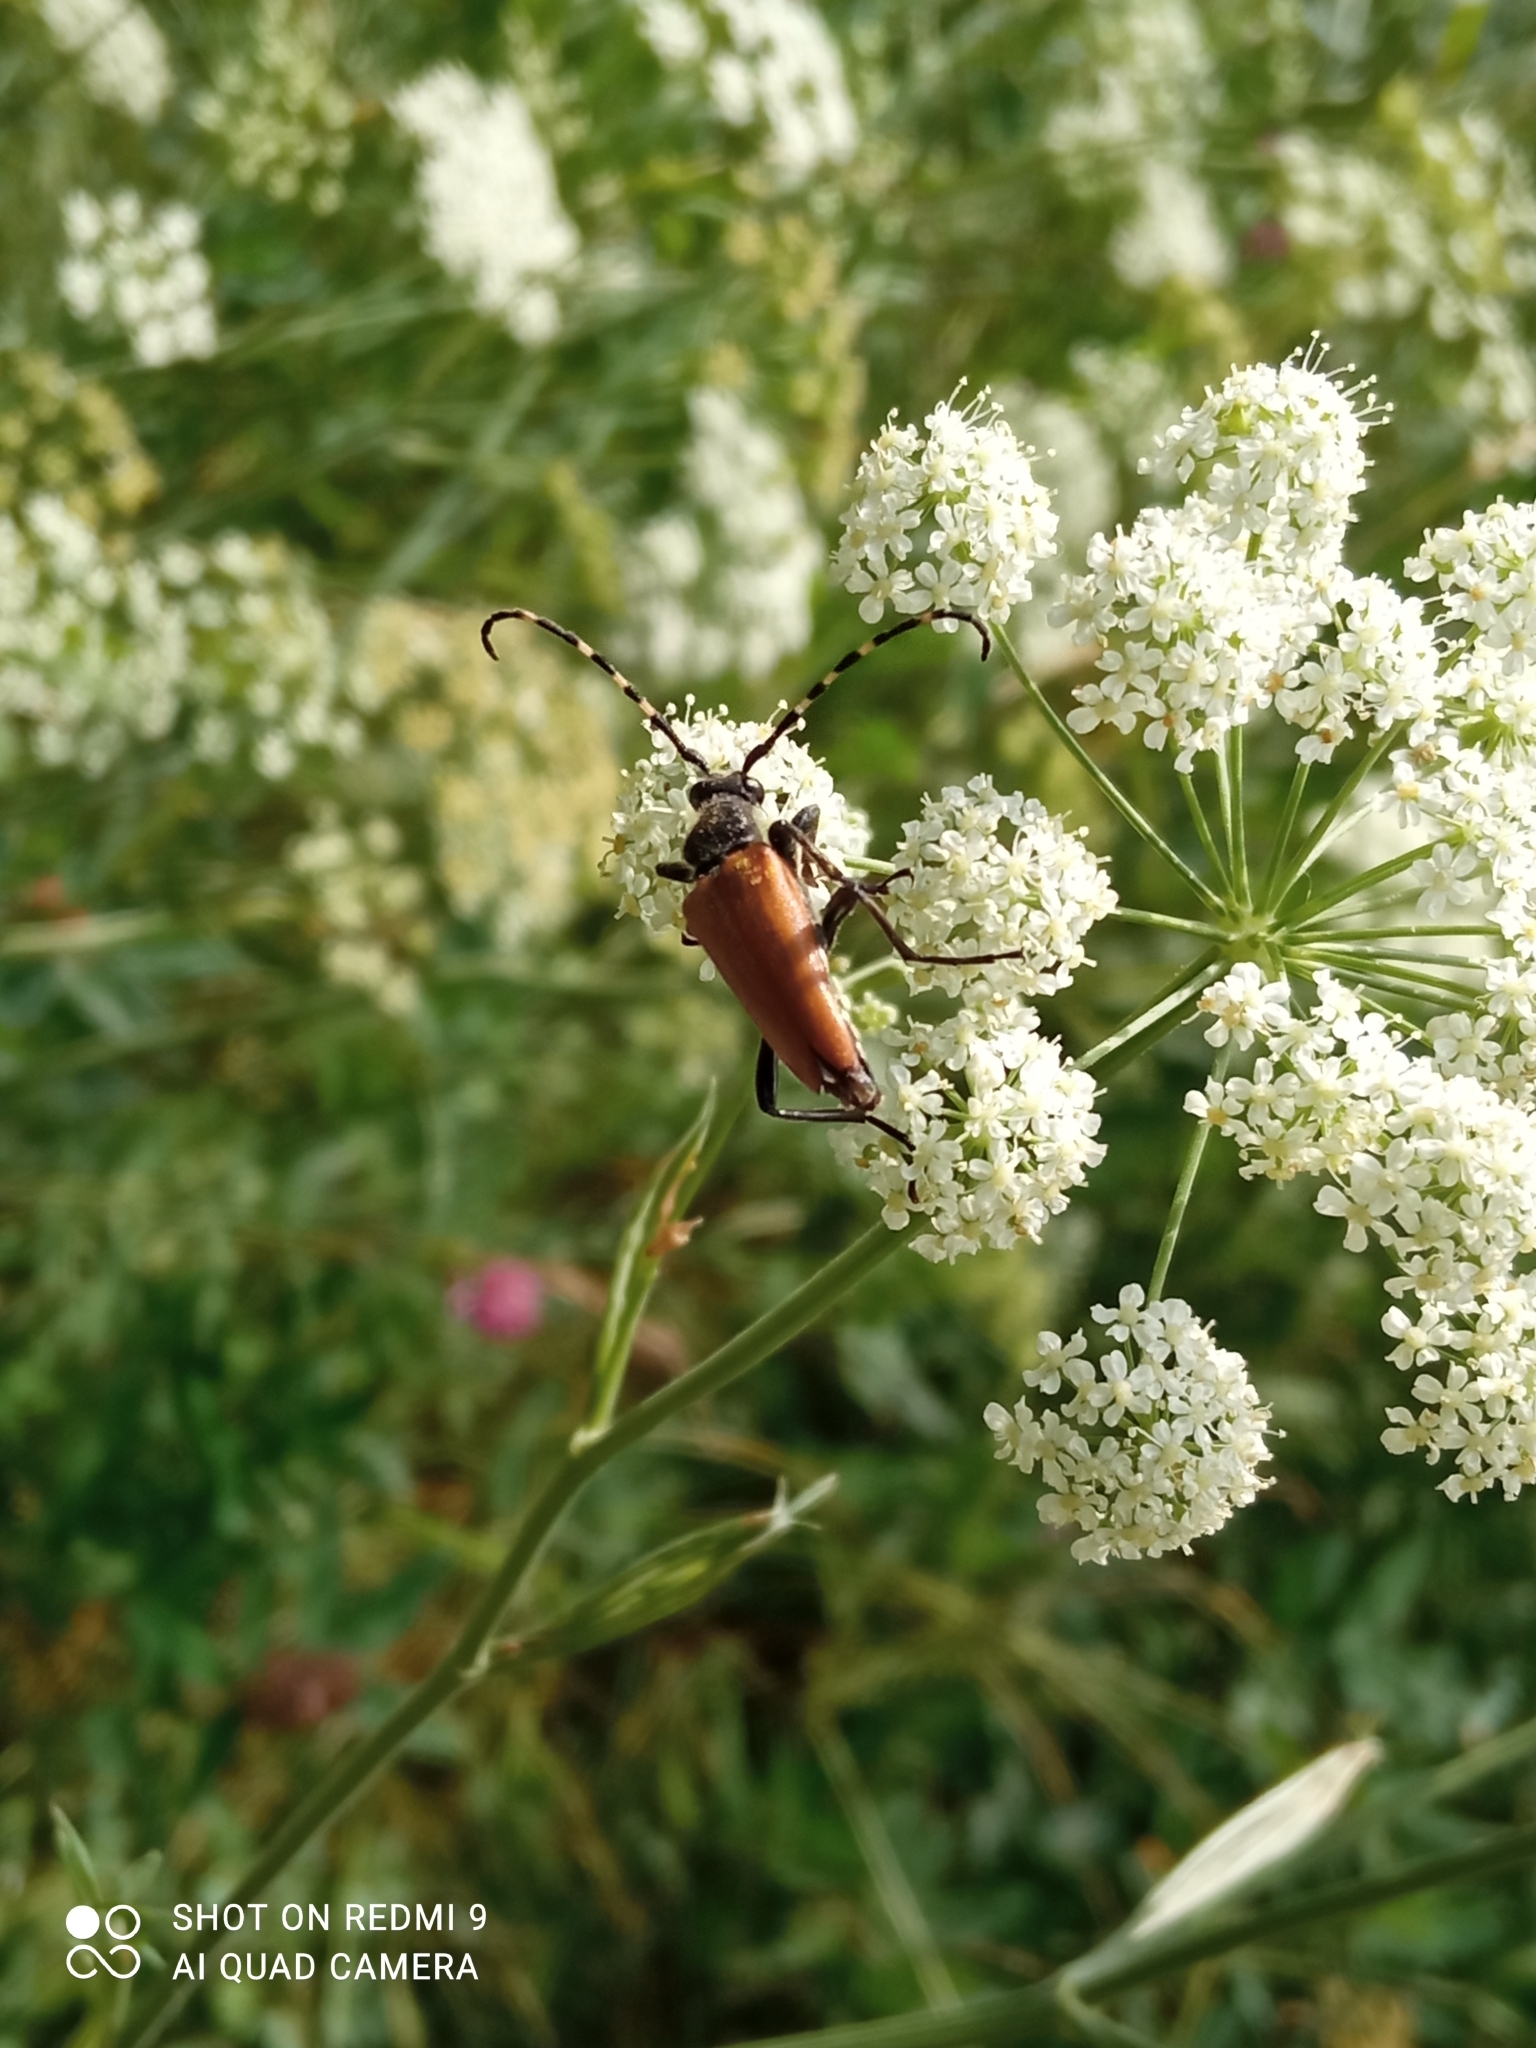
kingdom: Animalia
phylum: Arthropoda
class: Insecta
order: Coleoptera
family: Cerambycidae
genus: Stictoleptura
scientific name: Stictoleptura variicornis
